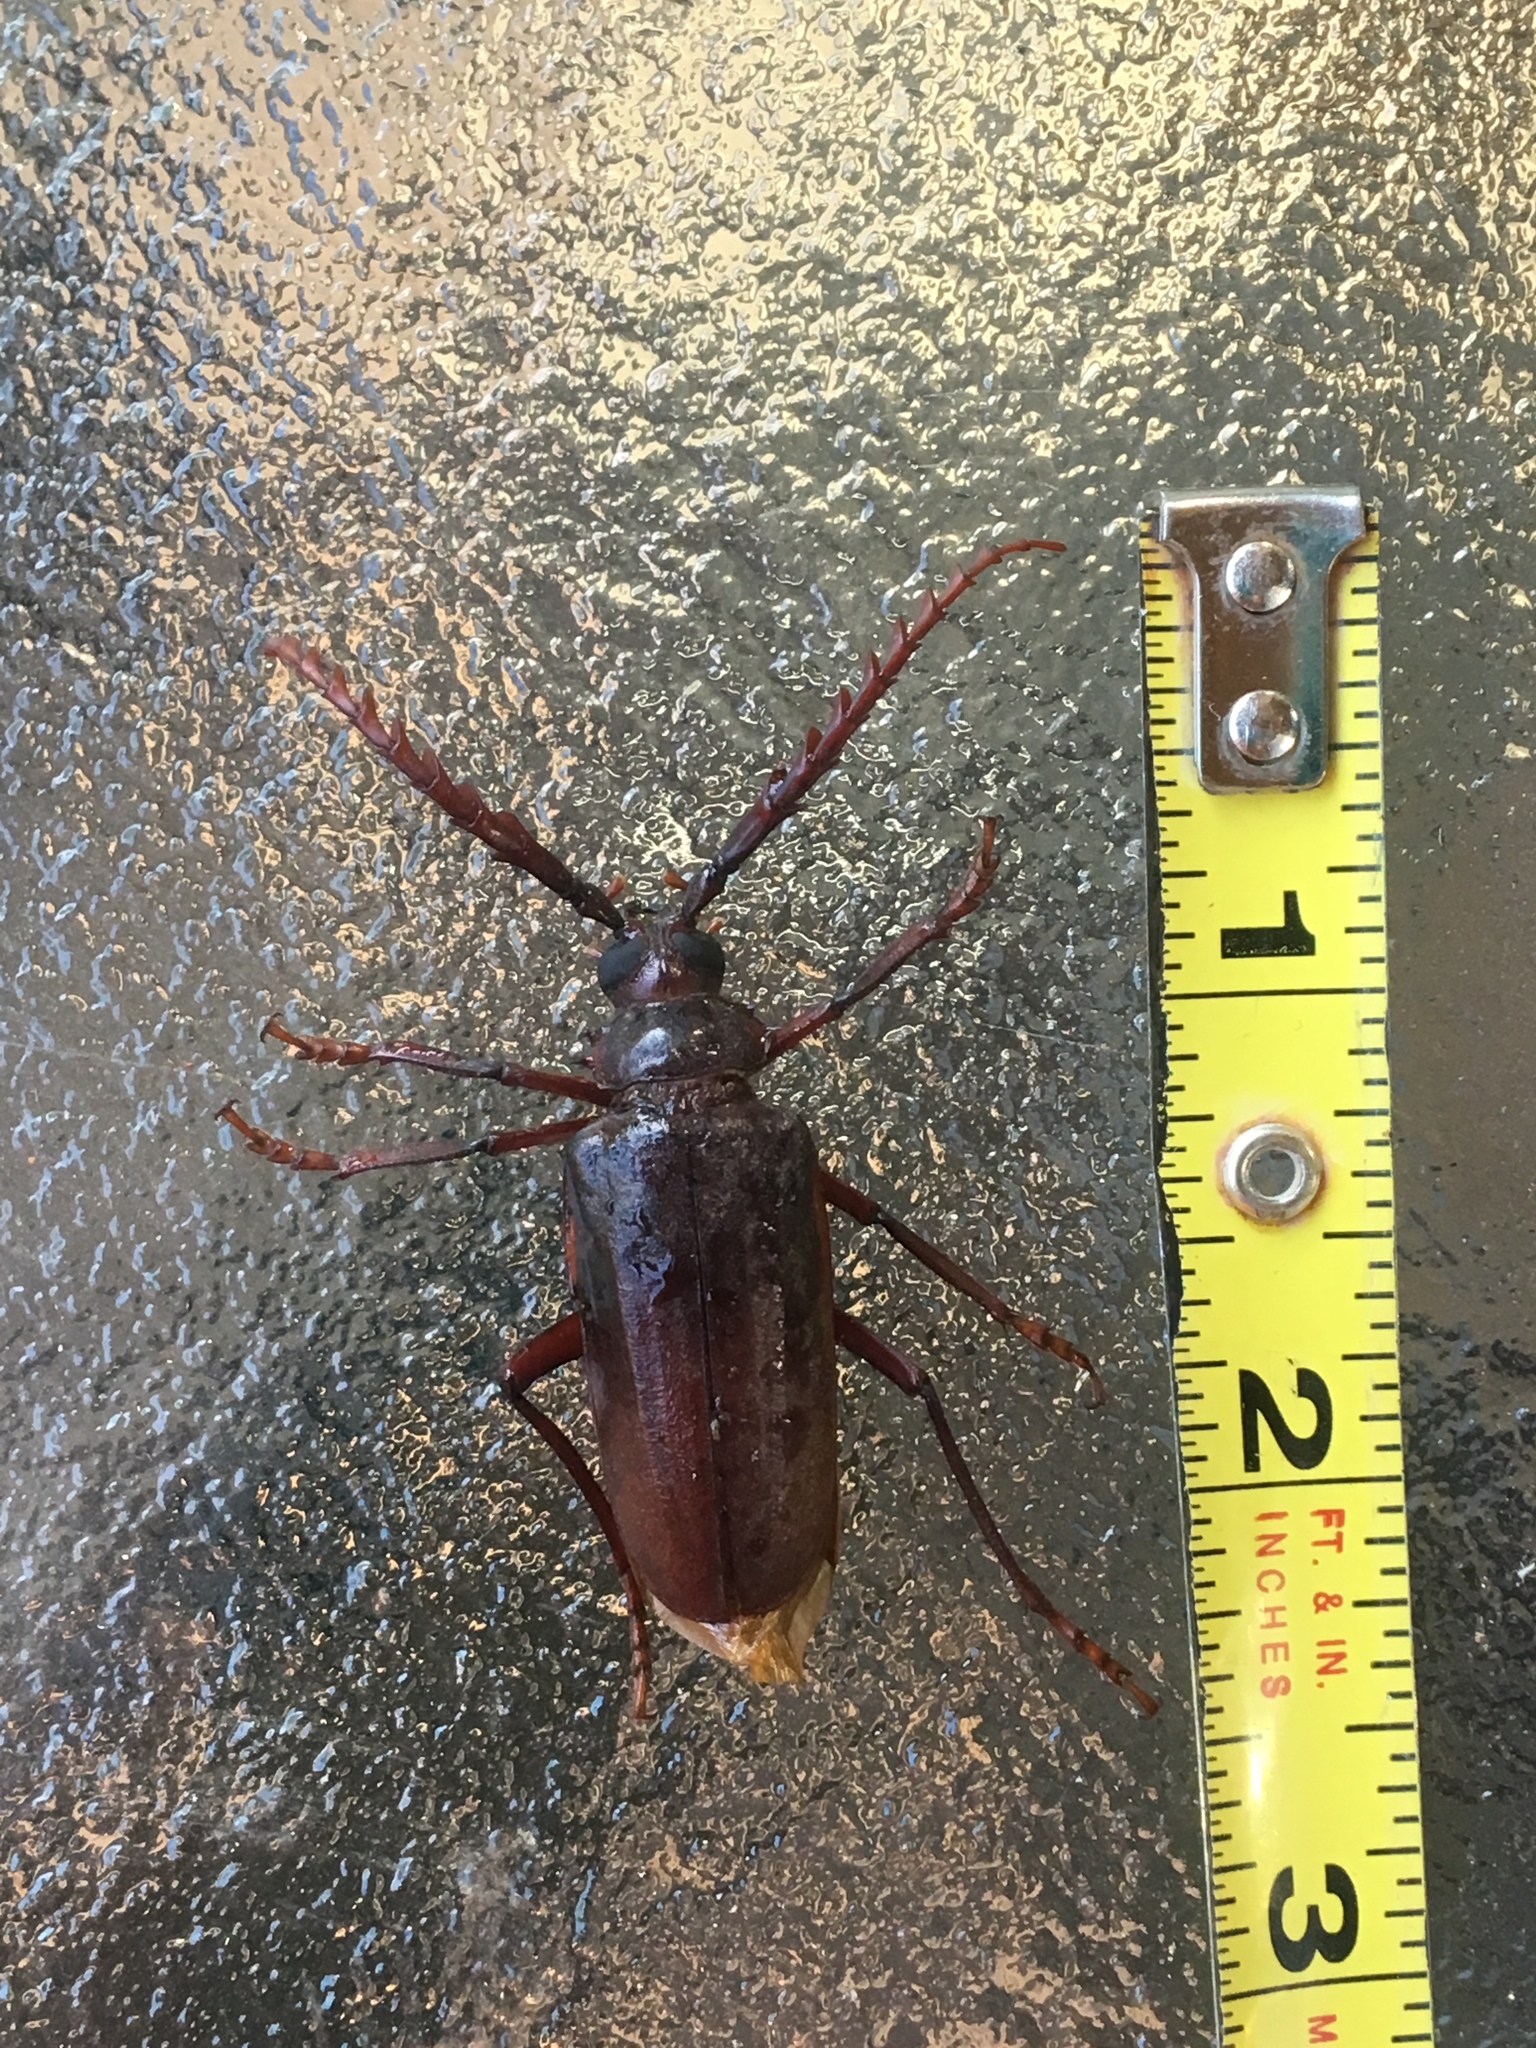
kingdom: Animalia
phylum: Arthropoda
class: Insecta
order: Coleoptera
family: Cerambycidae
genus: Prionus
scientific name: Prionus californicus
